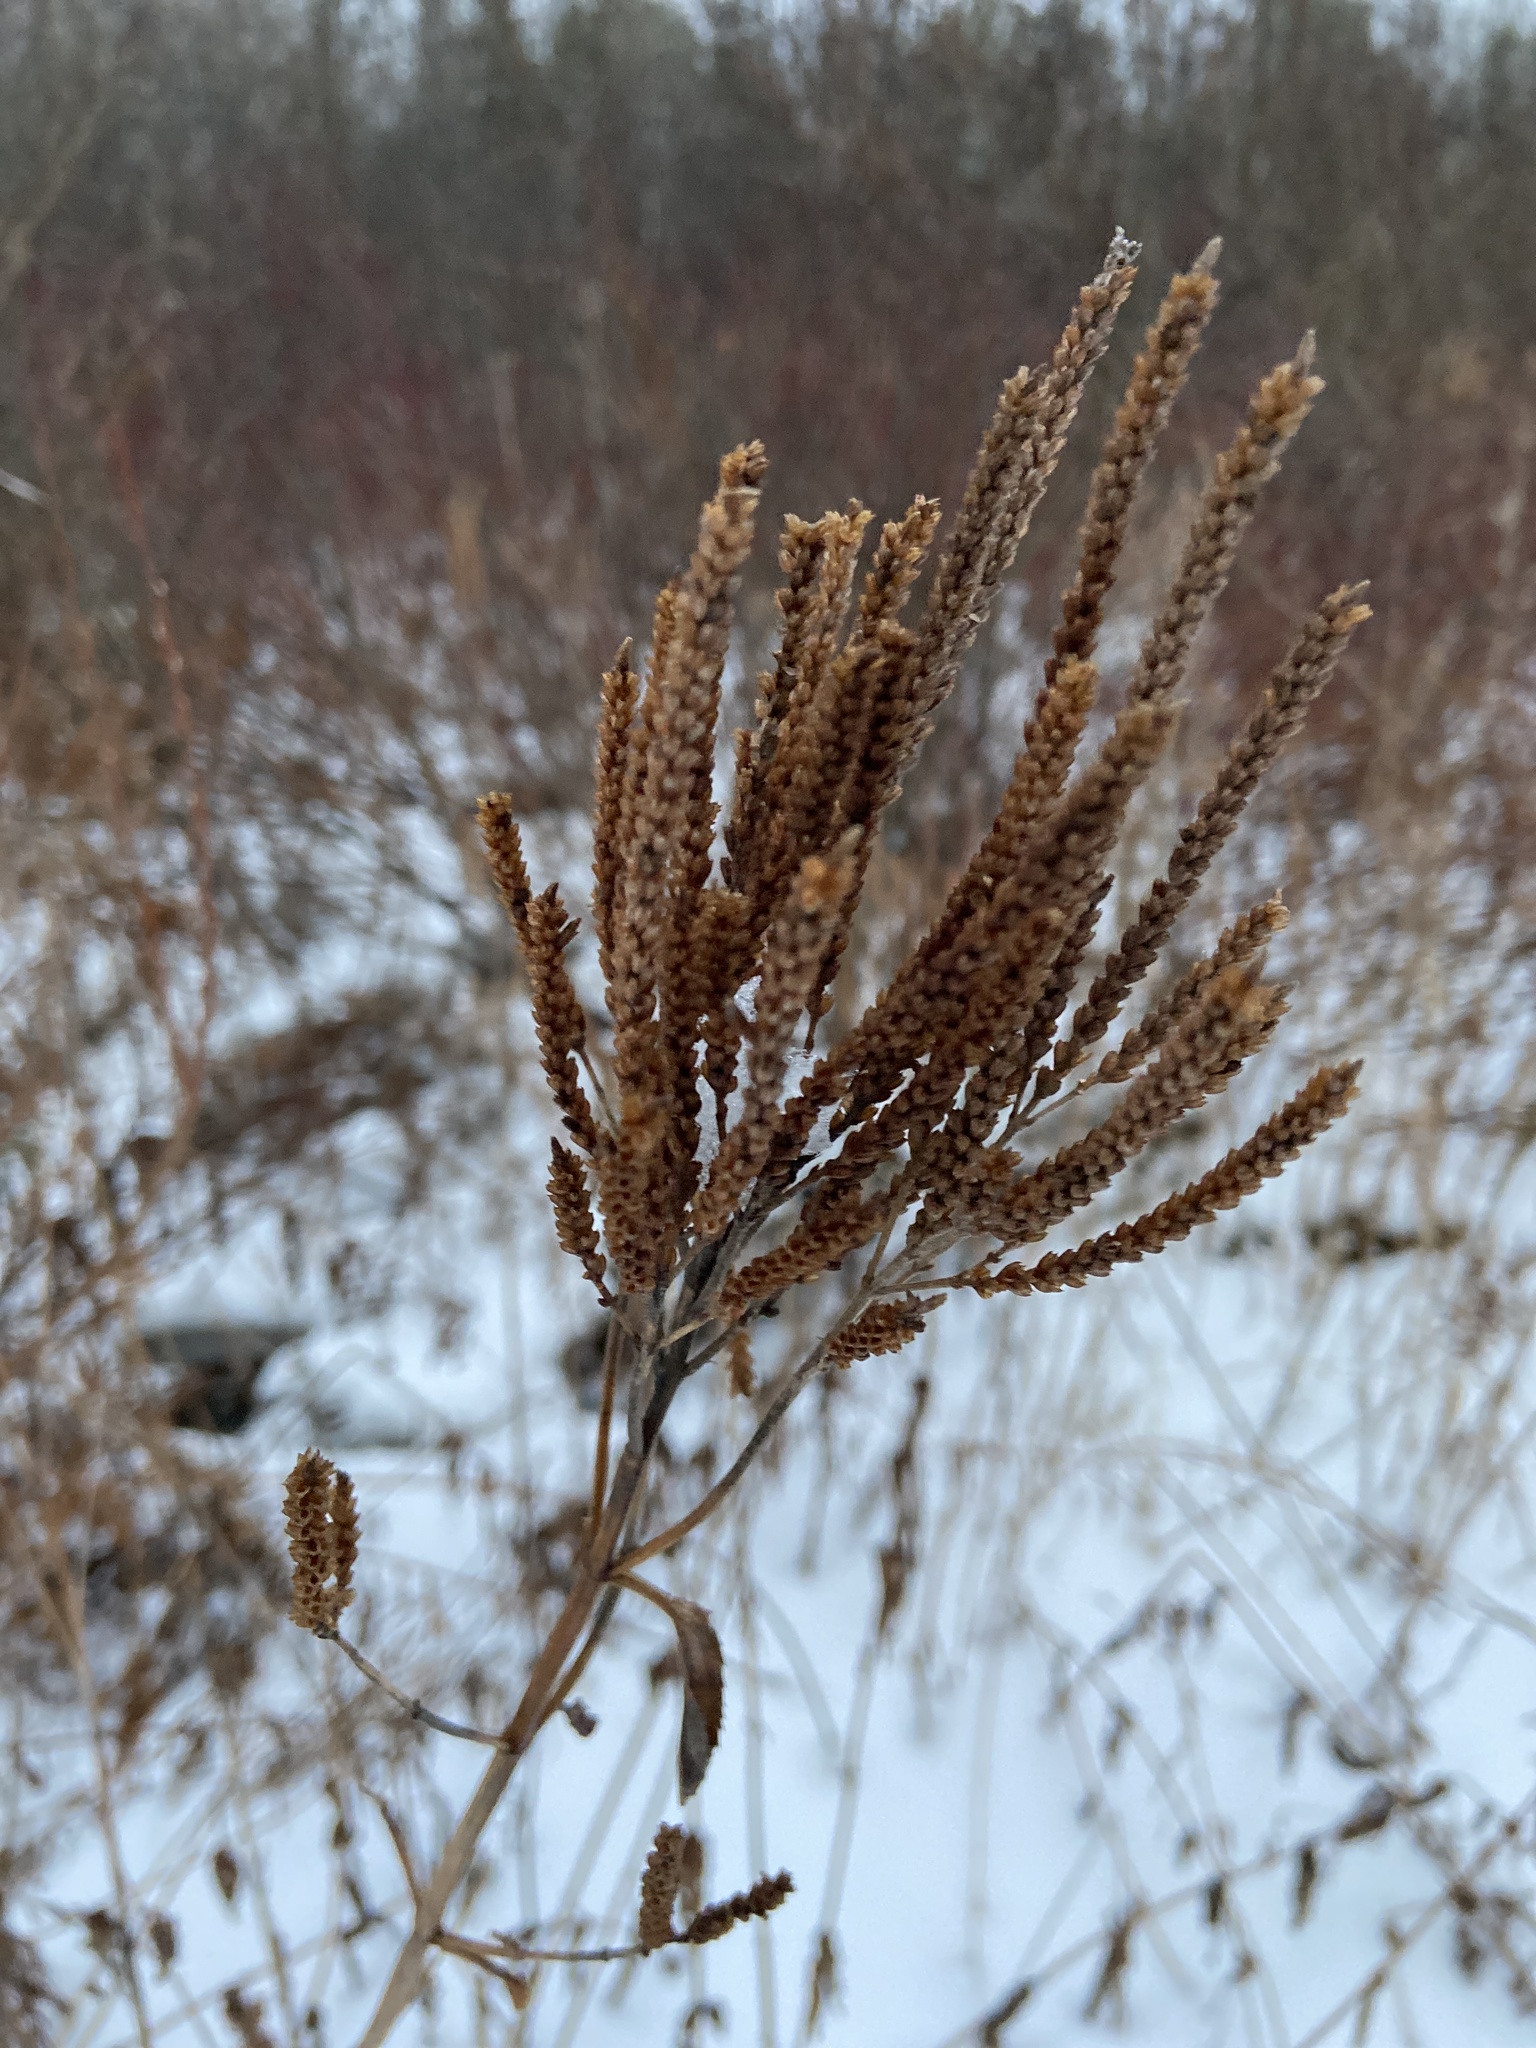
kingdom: Plantae
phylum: Tracheophyta
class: Magnoliopsida
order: Lamiales
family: Verbenaceae
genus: Verbena
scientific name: Verbena hastata
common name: American blue vervain
